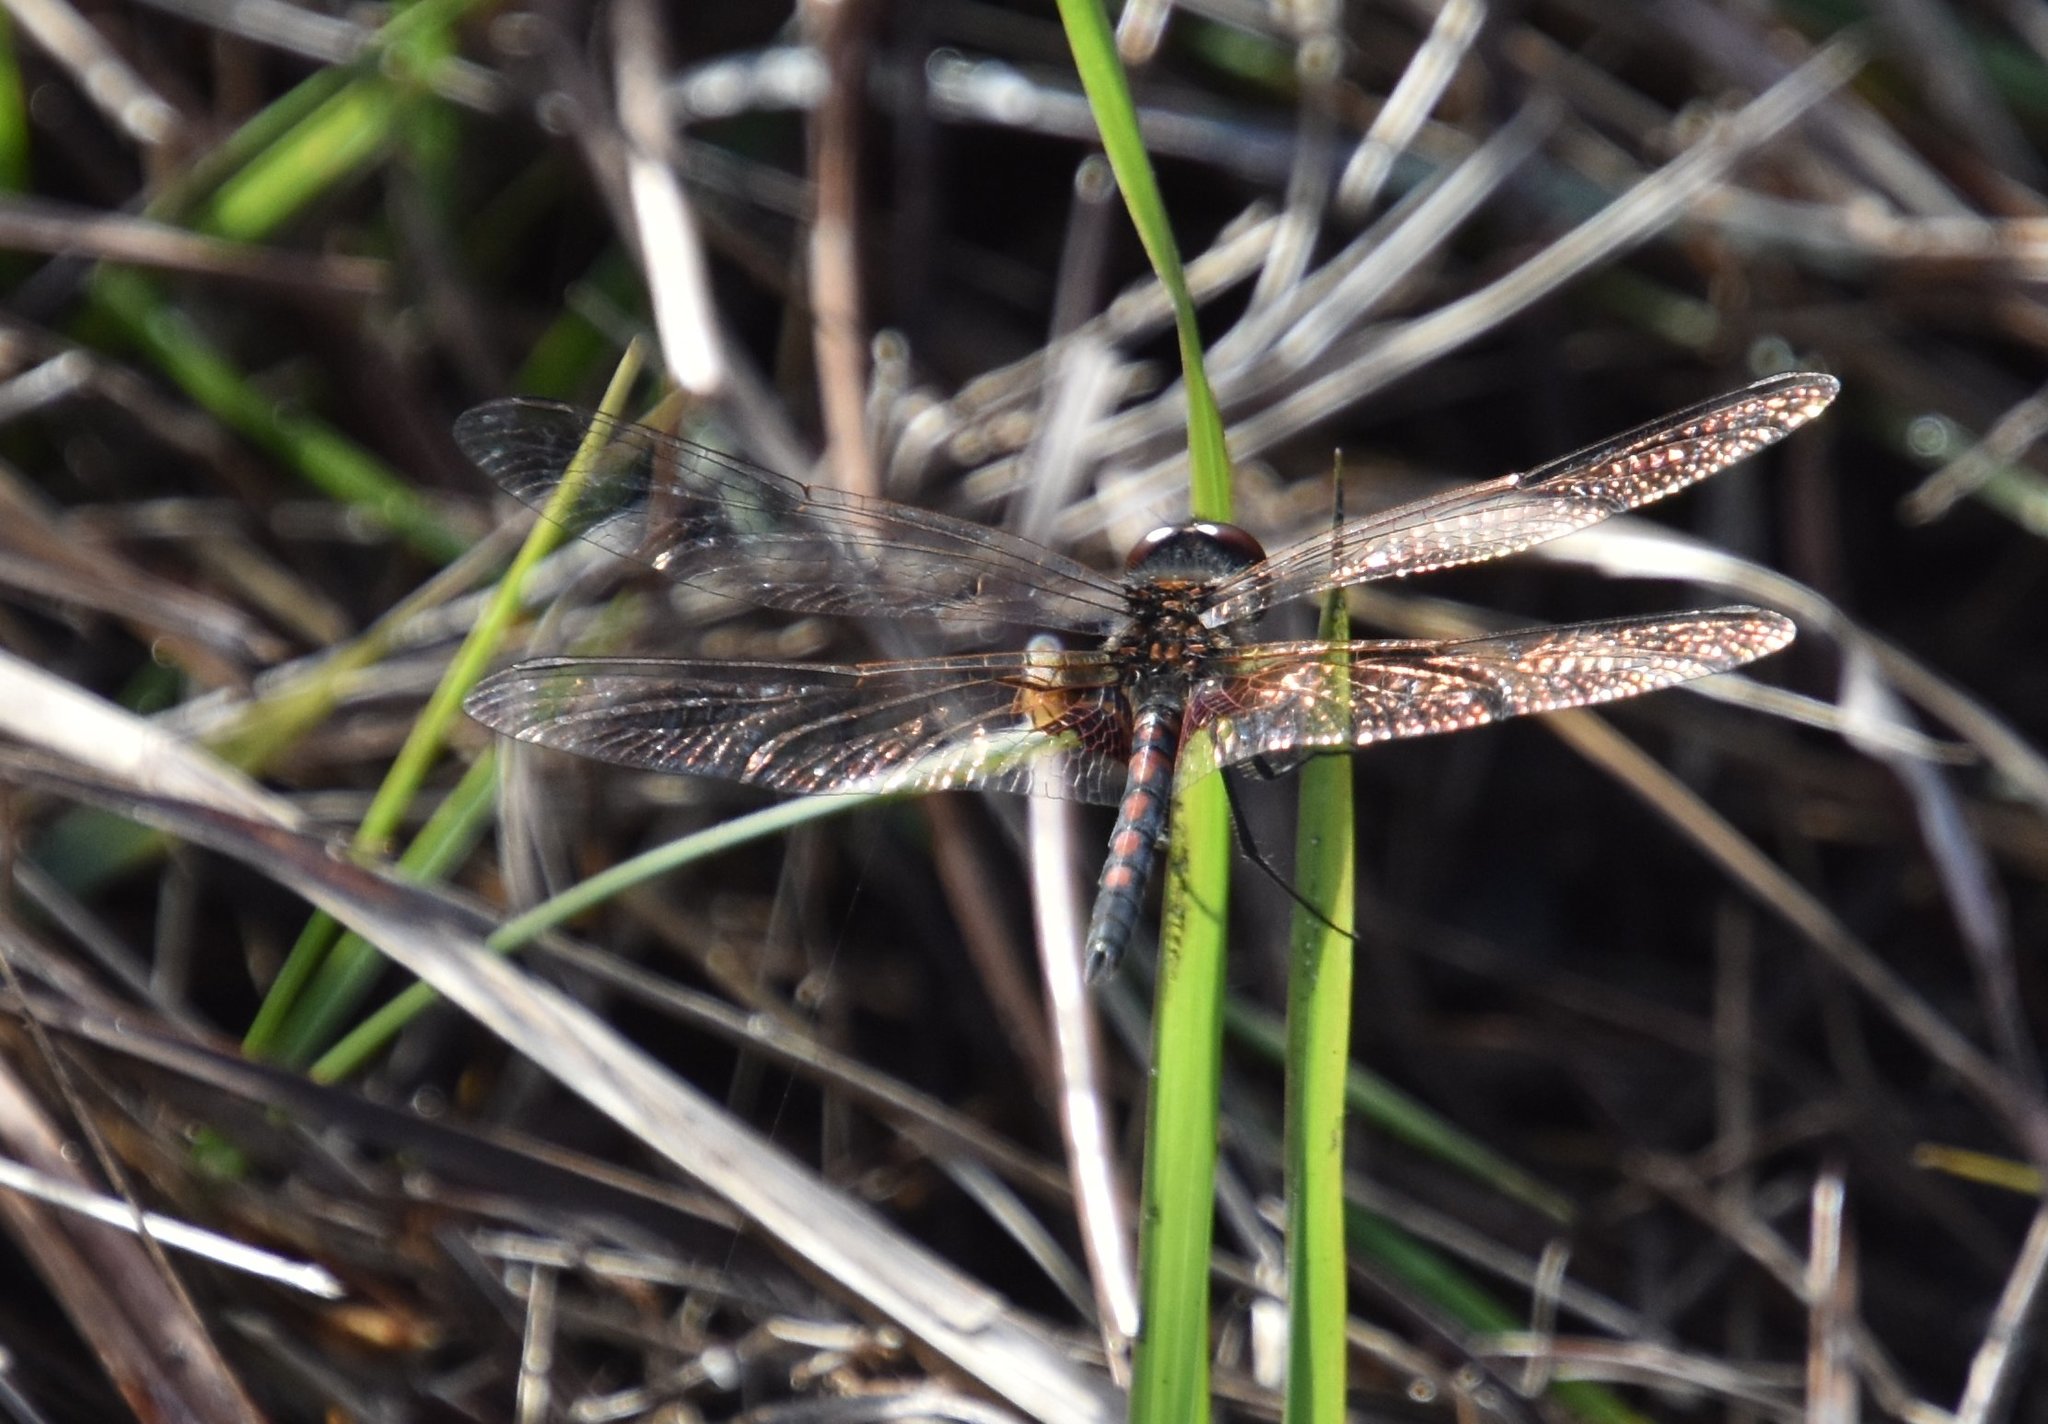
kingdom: Animalia
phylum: Arthropoda
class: Insecta
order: Odonata
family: Libellulidae
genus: Celithemis
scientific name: Celithemis ornata
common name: Ornate pennant
